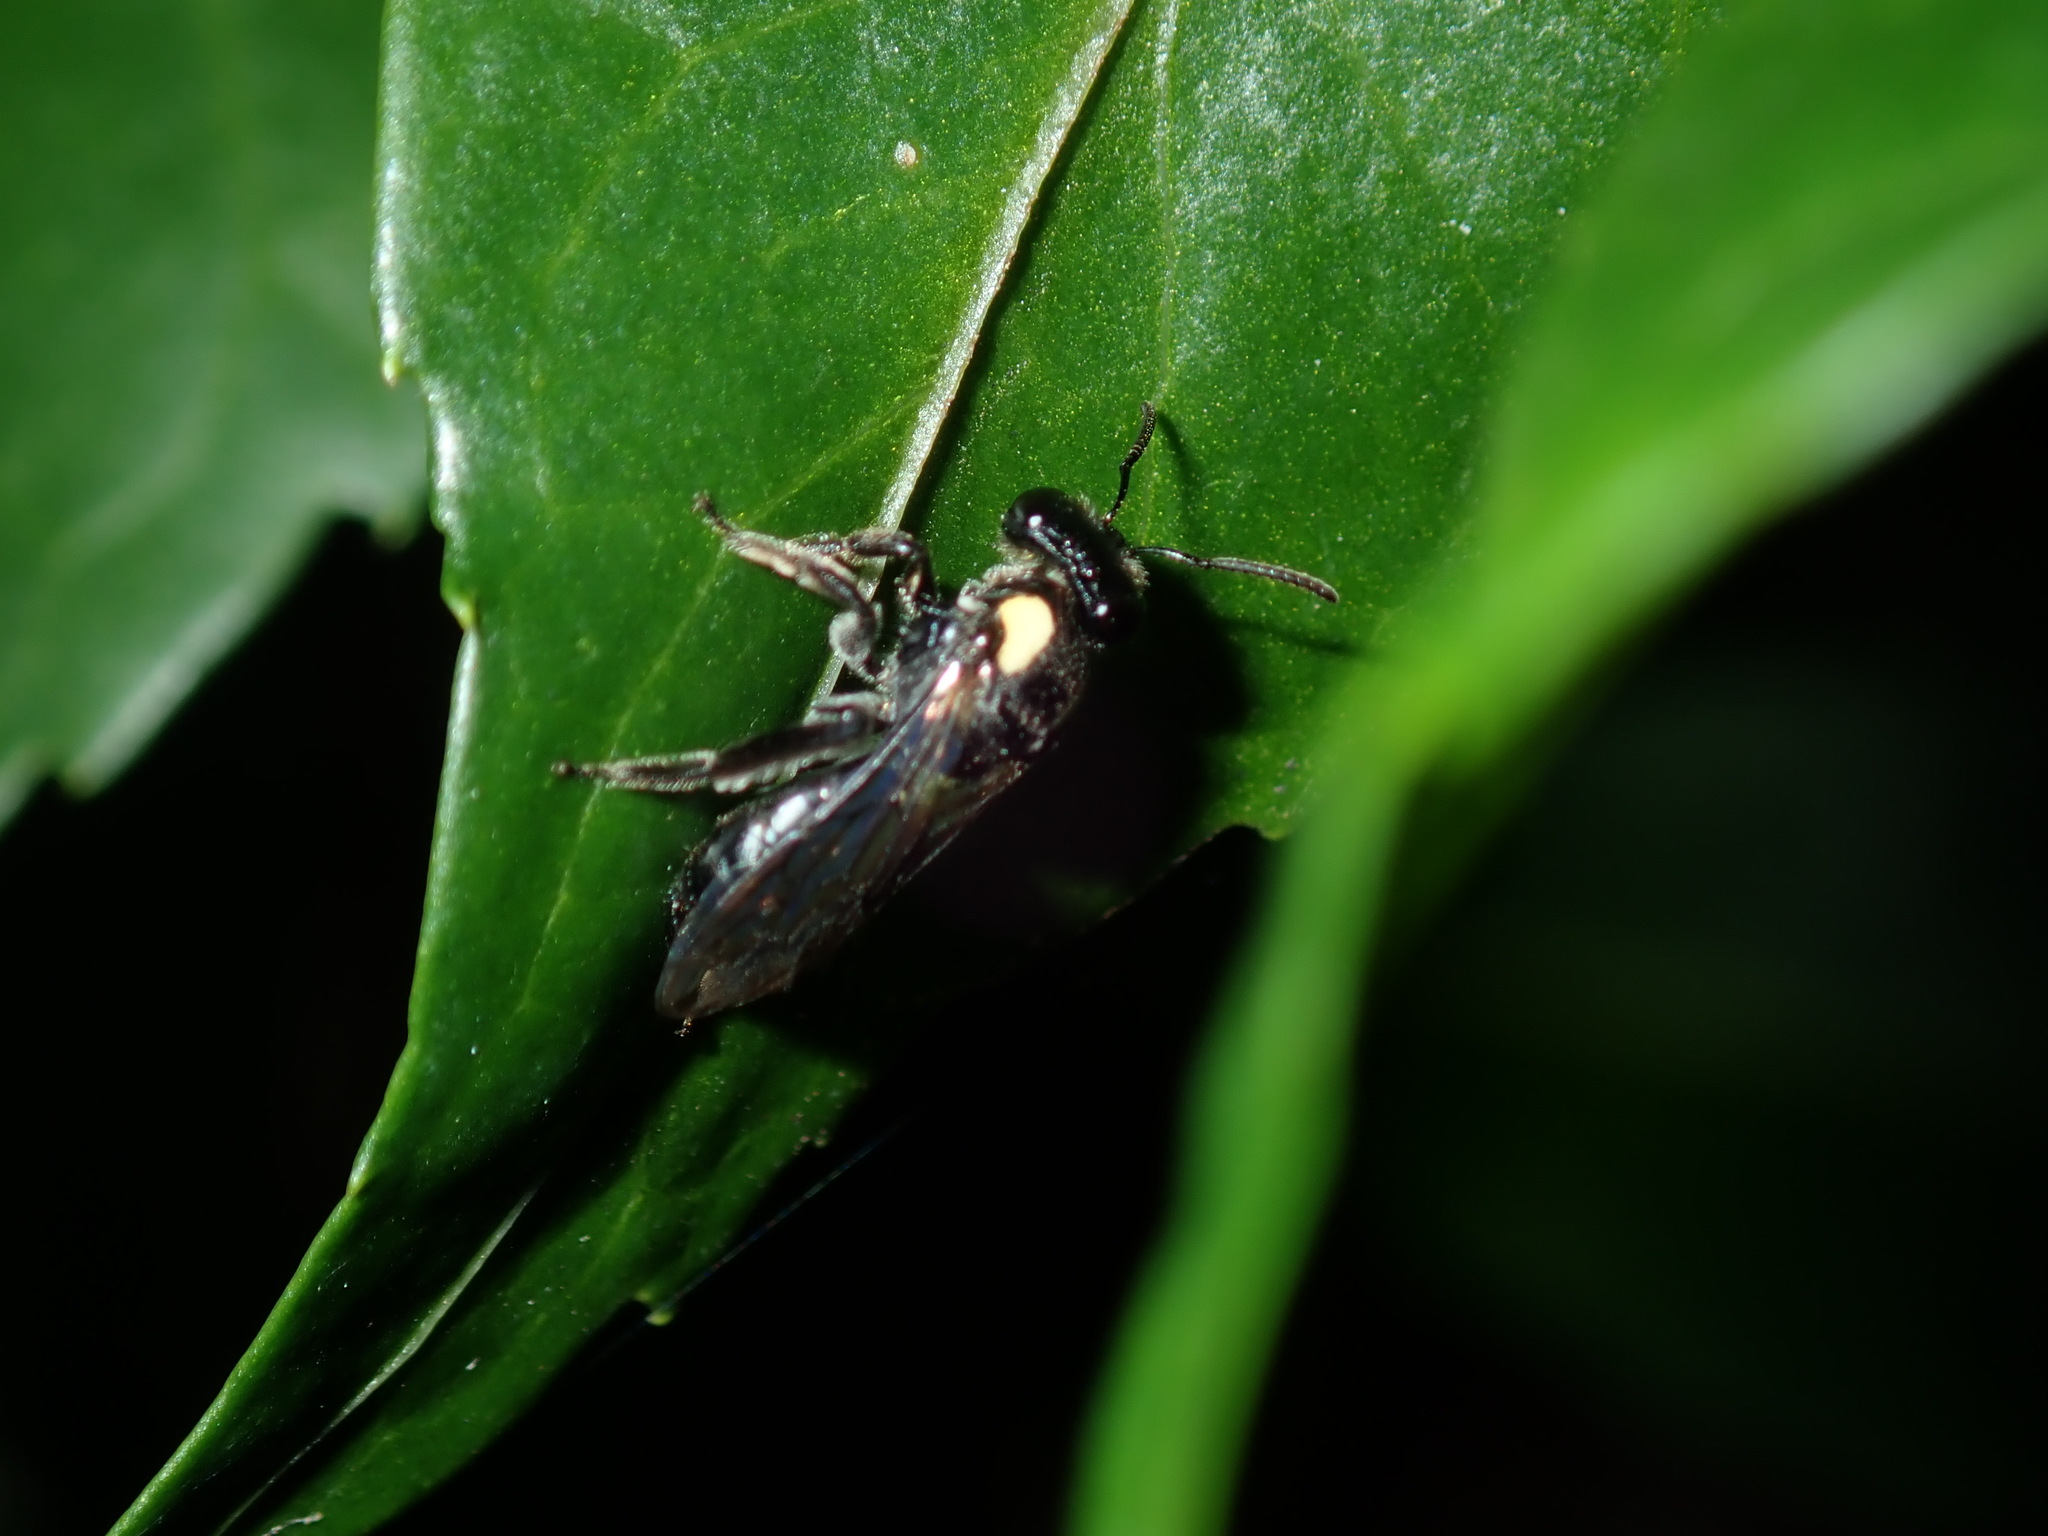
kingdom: Animalia
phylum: Arthropoda
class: Insecta
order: Hymenoptera
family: Colletidae
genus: Leioproctus
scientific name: Leioproctus irroratus
